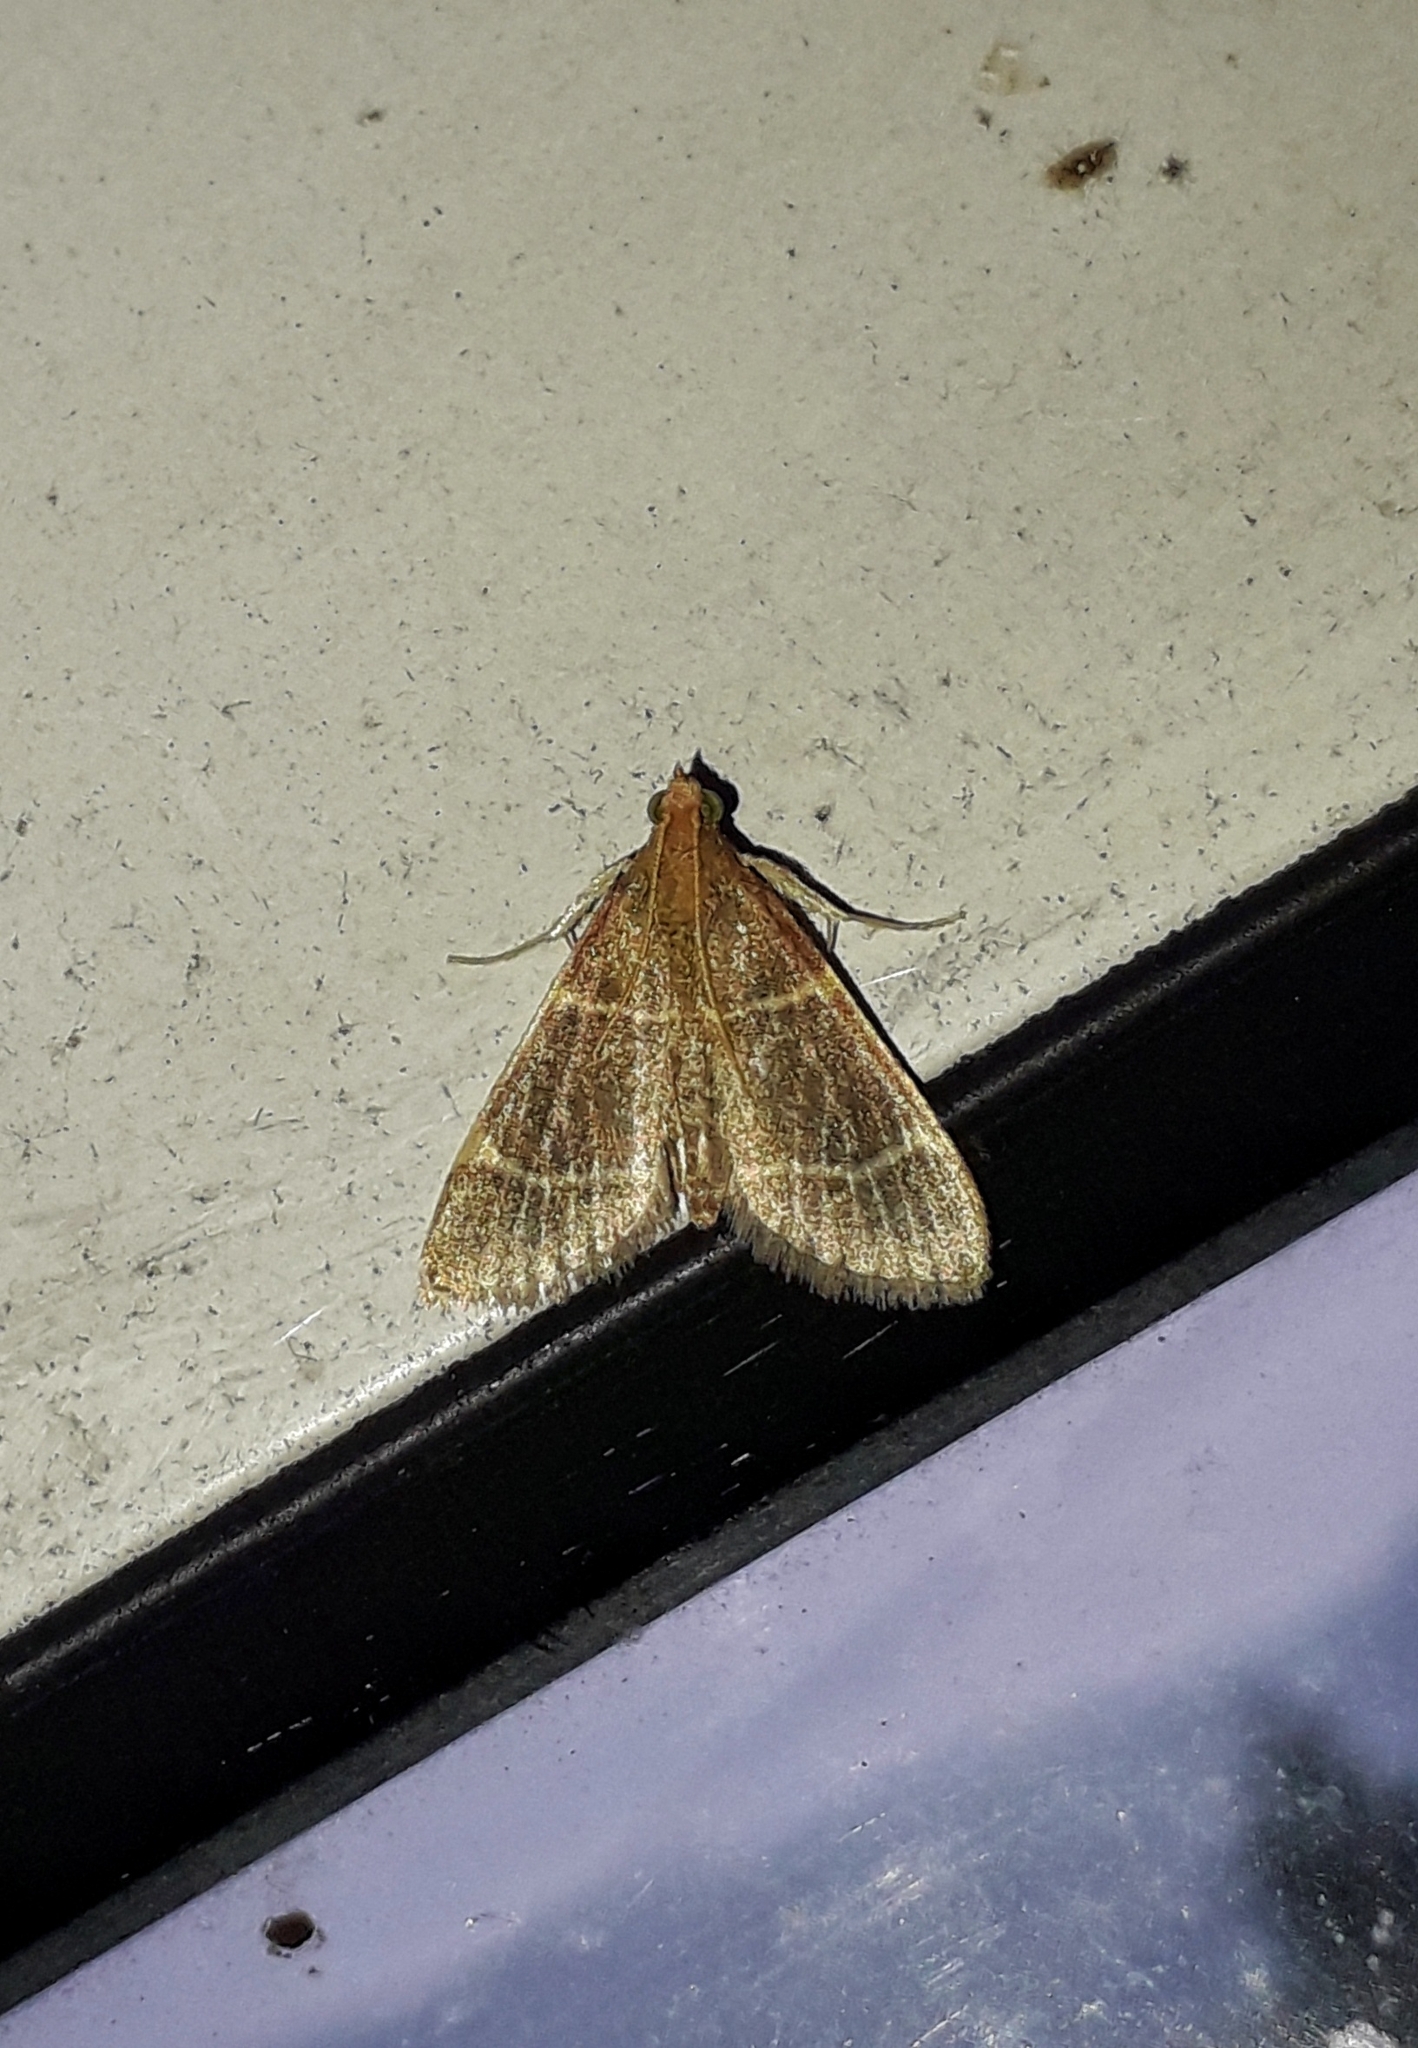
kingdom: Animalia
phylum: Arthropoda
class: Insecta
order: Lepidoptera
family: Pyralidae
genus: Hypsopygia
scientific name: Hypsopygia glaucinalis
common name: Double-striped tabby
